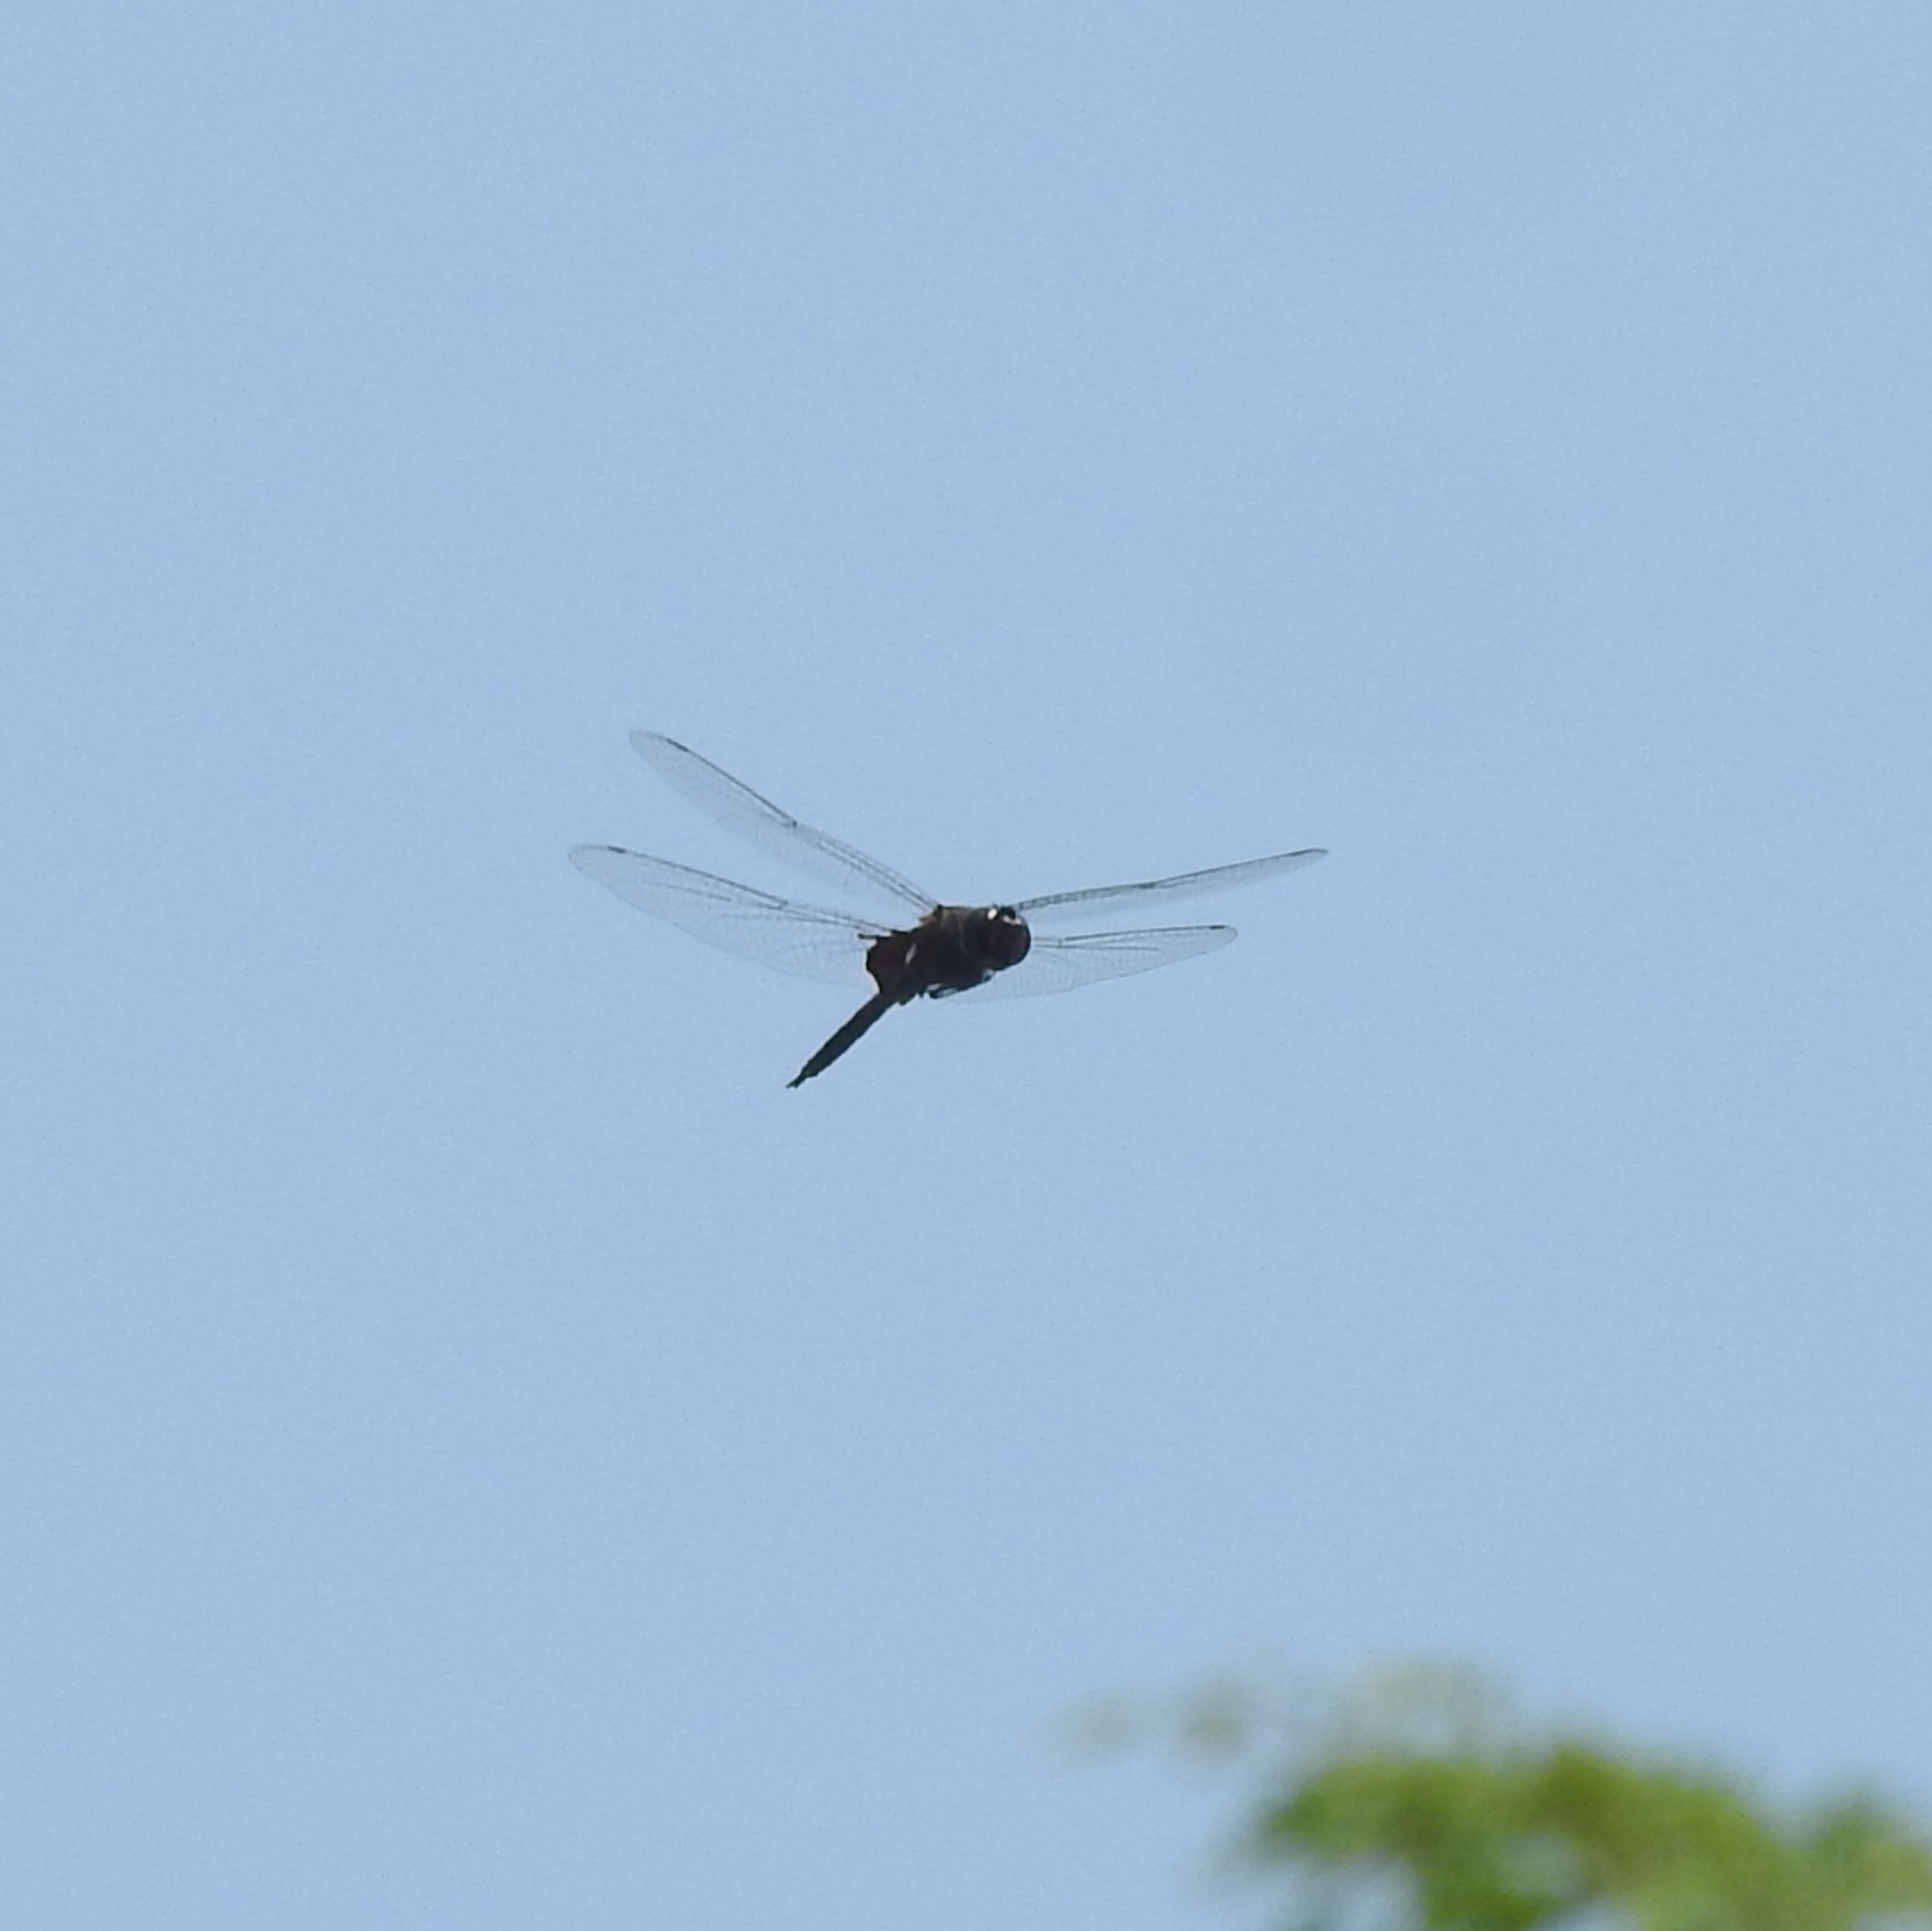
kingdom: Animalia
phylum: Arthropoda
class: Insecta
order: Odonata
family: Libellulidae
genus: Tramea
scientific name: Tramea limbata
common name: Ferruginous glider
